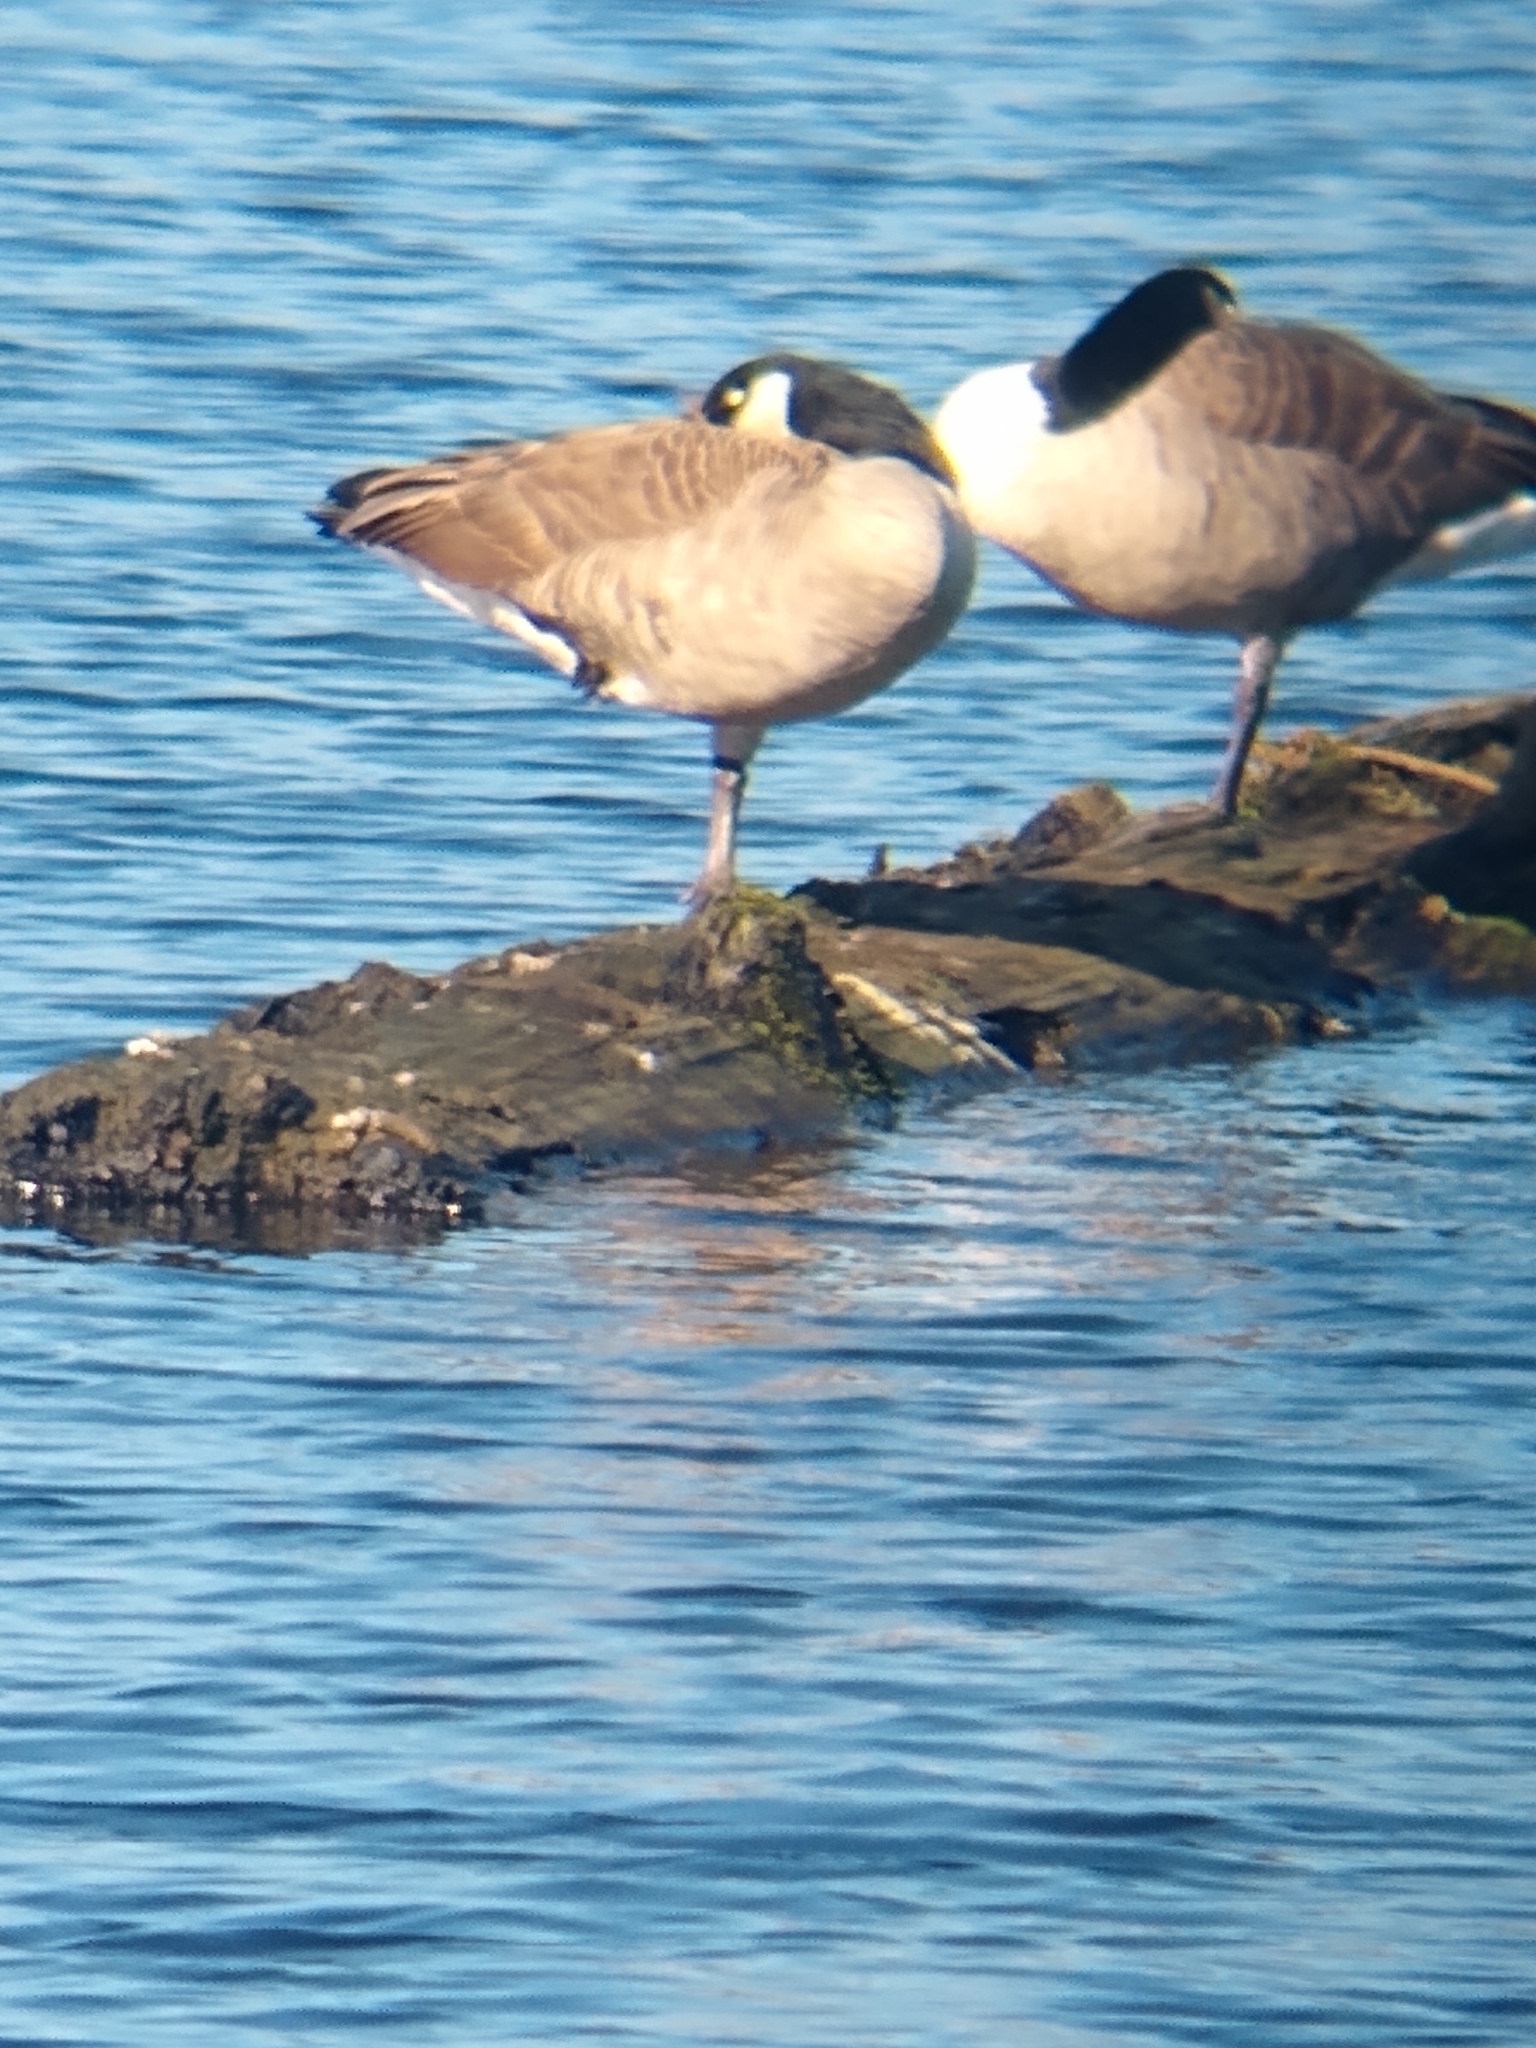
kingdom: Animalia
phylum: Chordata
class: Aves
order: Anseriformes
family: Anatidae
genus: Branta
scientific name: Branta canadensis
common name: Canada goose
